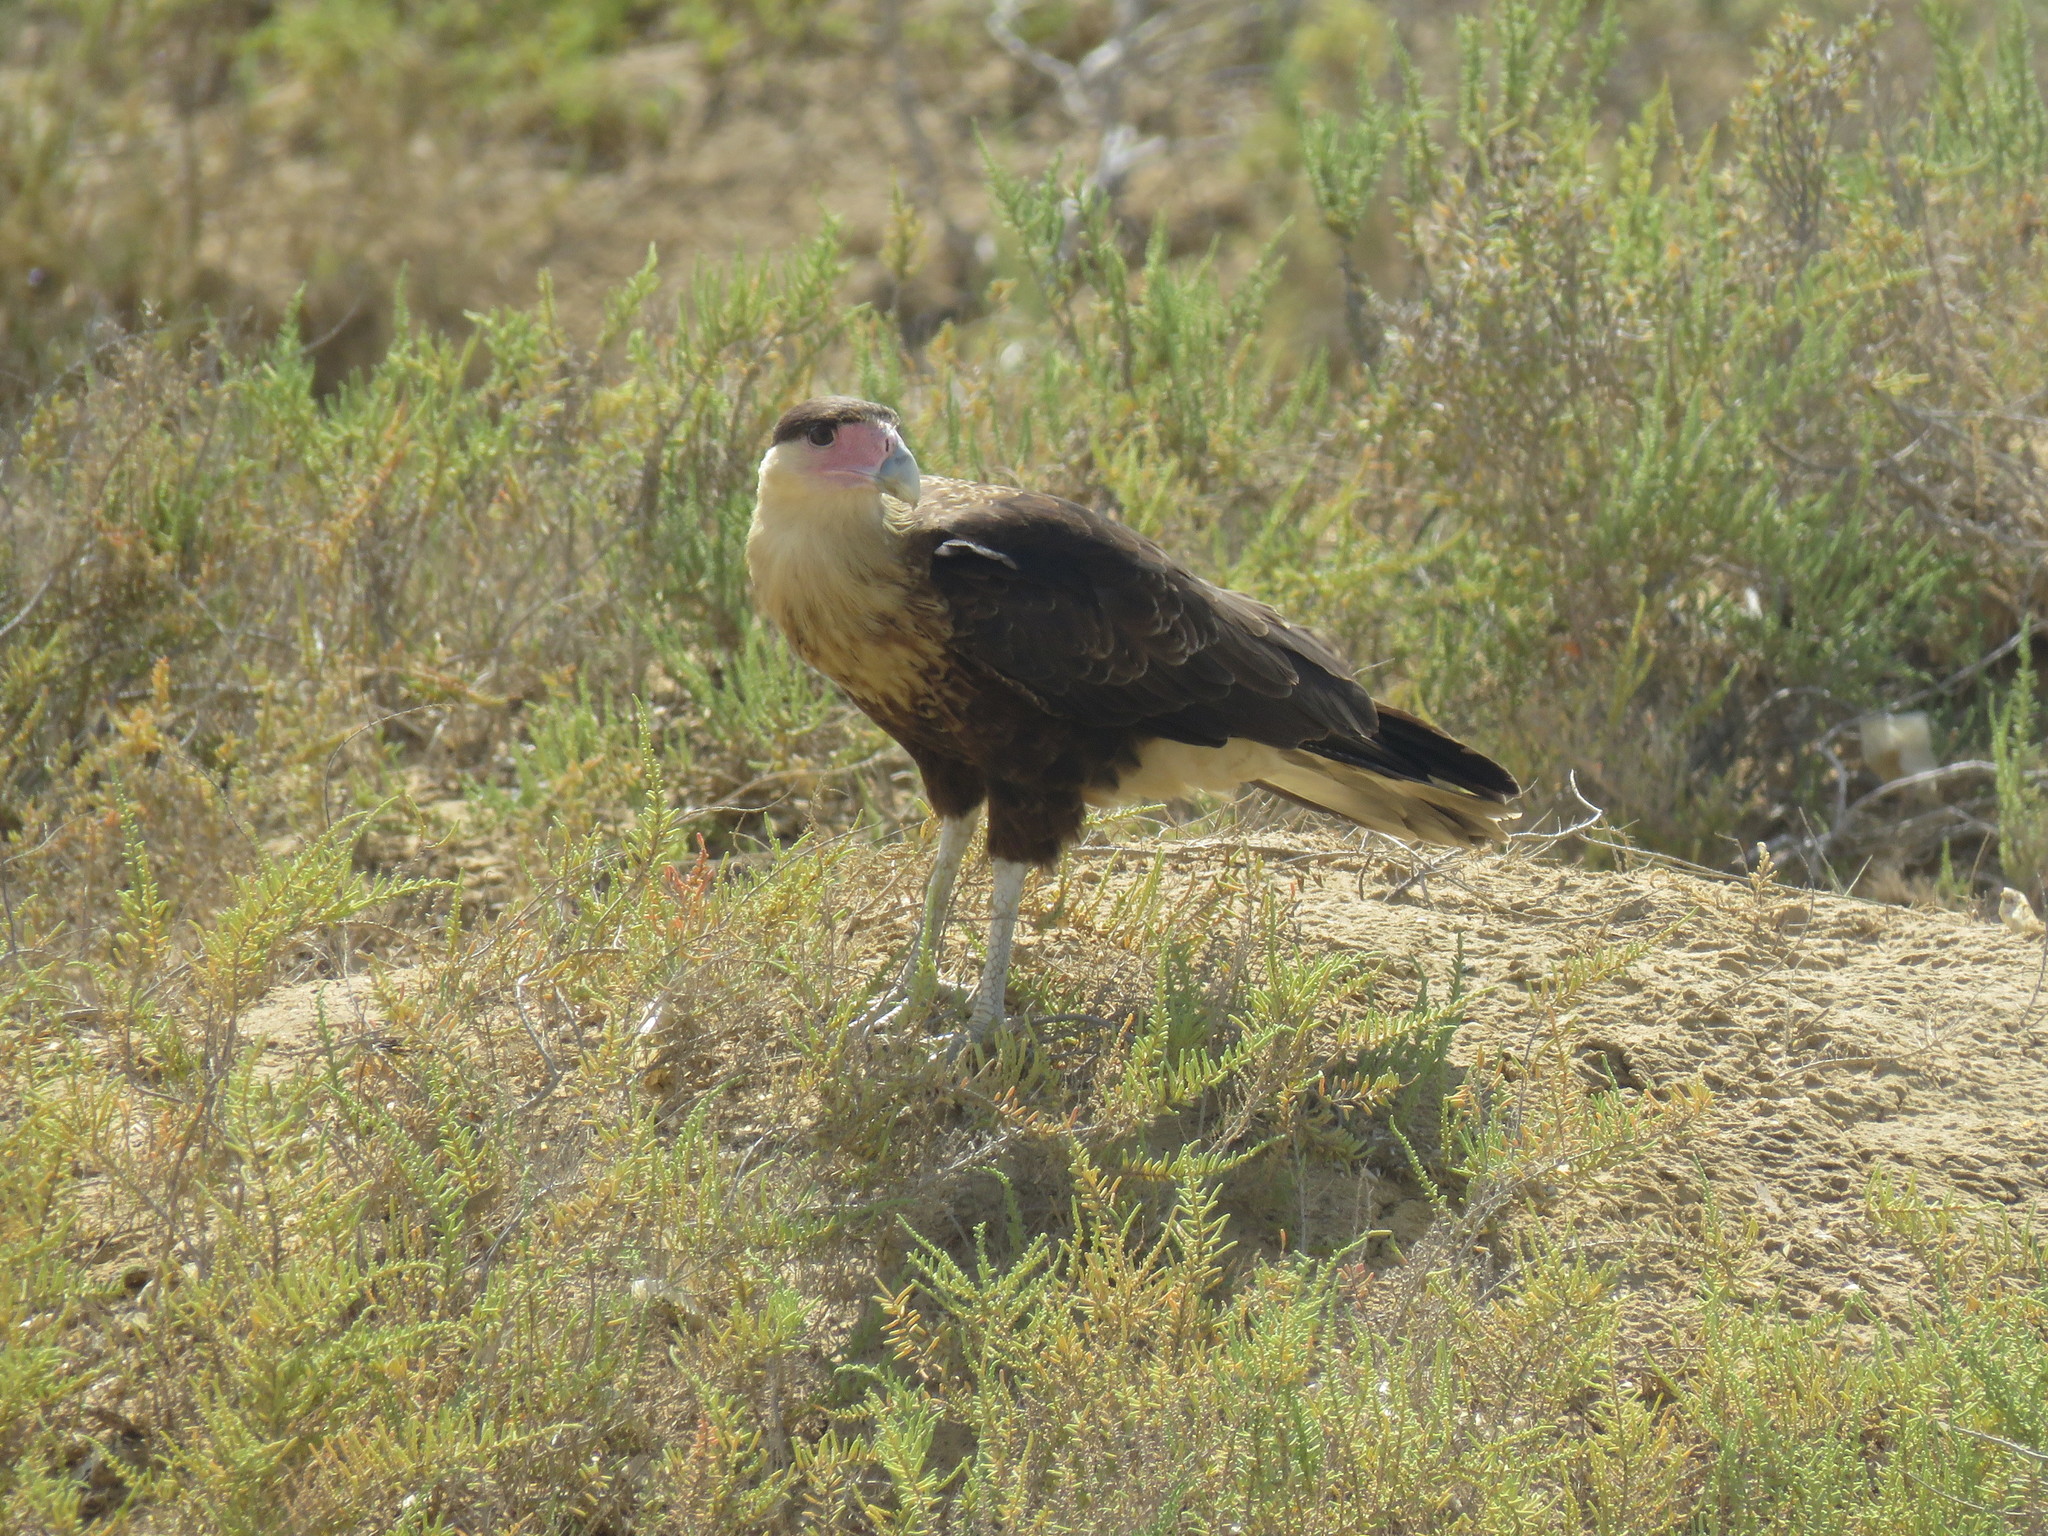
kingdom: Animalia
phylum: Chordata
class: Aves
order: Falconiformes
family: Falconidae
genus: Caracara
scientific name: Caracara plancus
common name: Southern caracara
